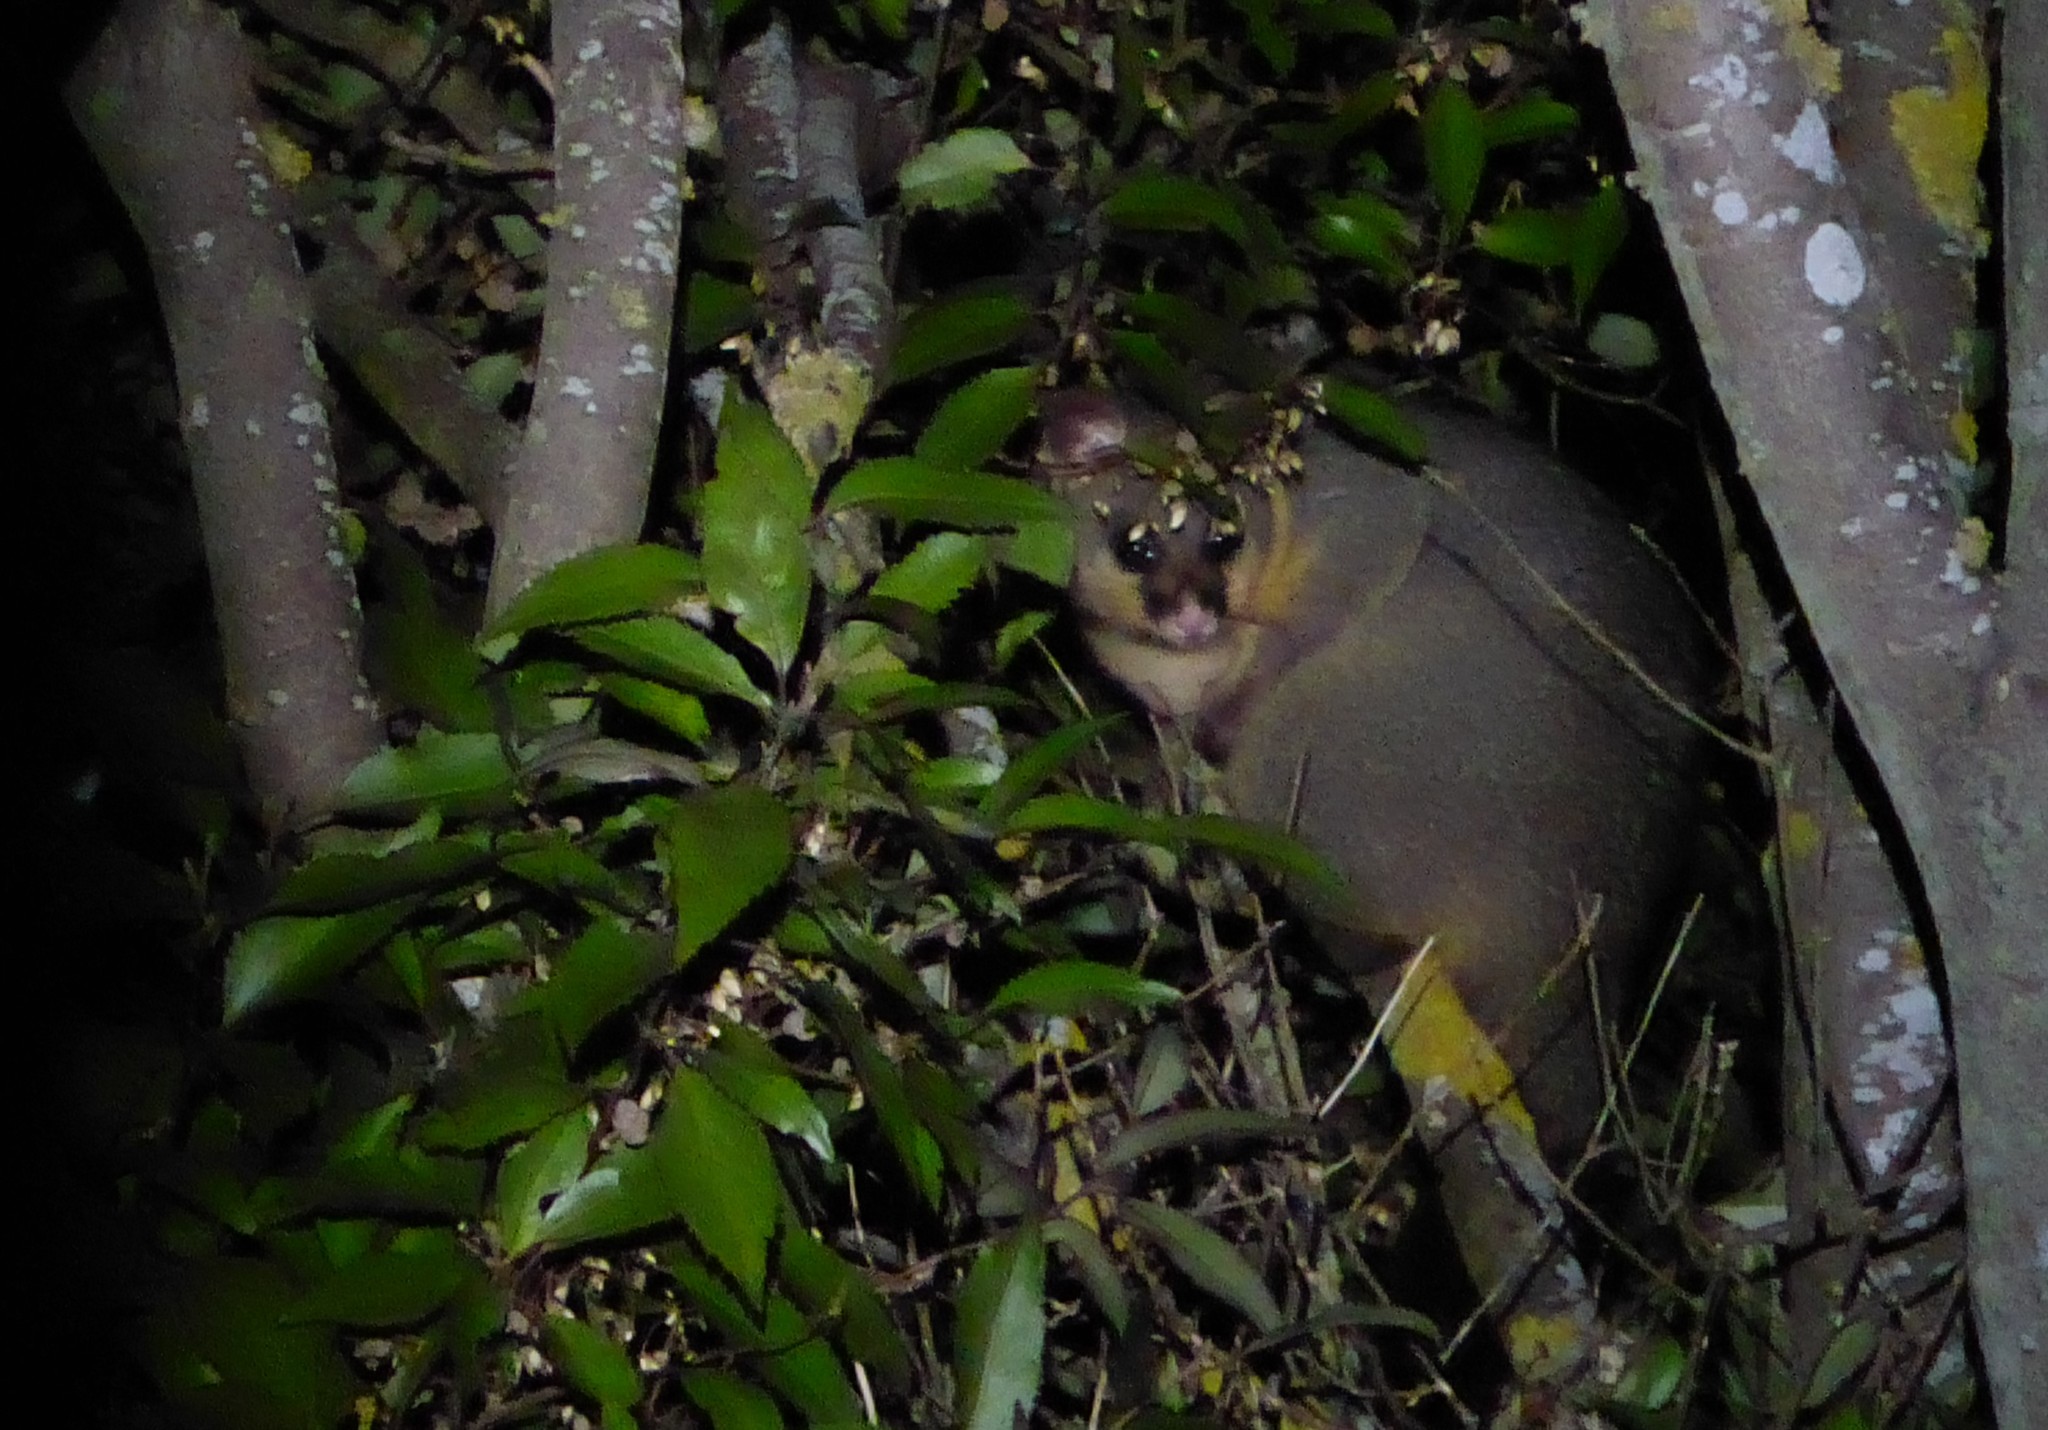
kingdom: Animalia
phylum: Chordata
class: Mammalia
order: Diprotodontia
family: Phalangeridae
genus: Trichosurus
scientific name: Trichosurus vulpecula
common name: Common brushtail
